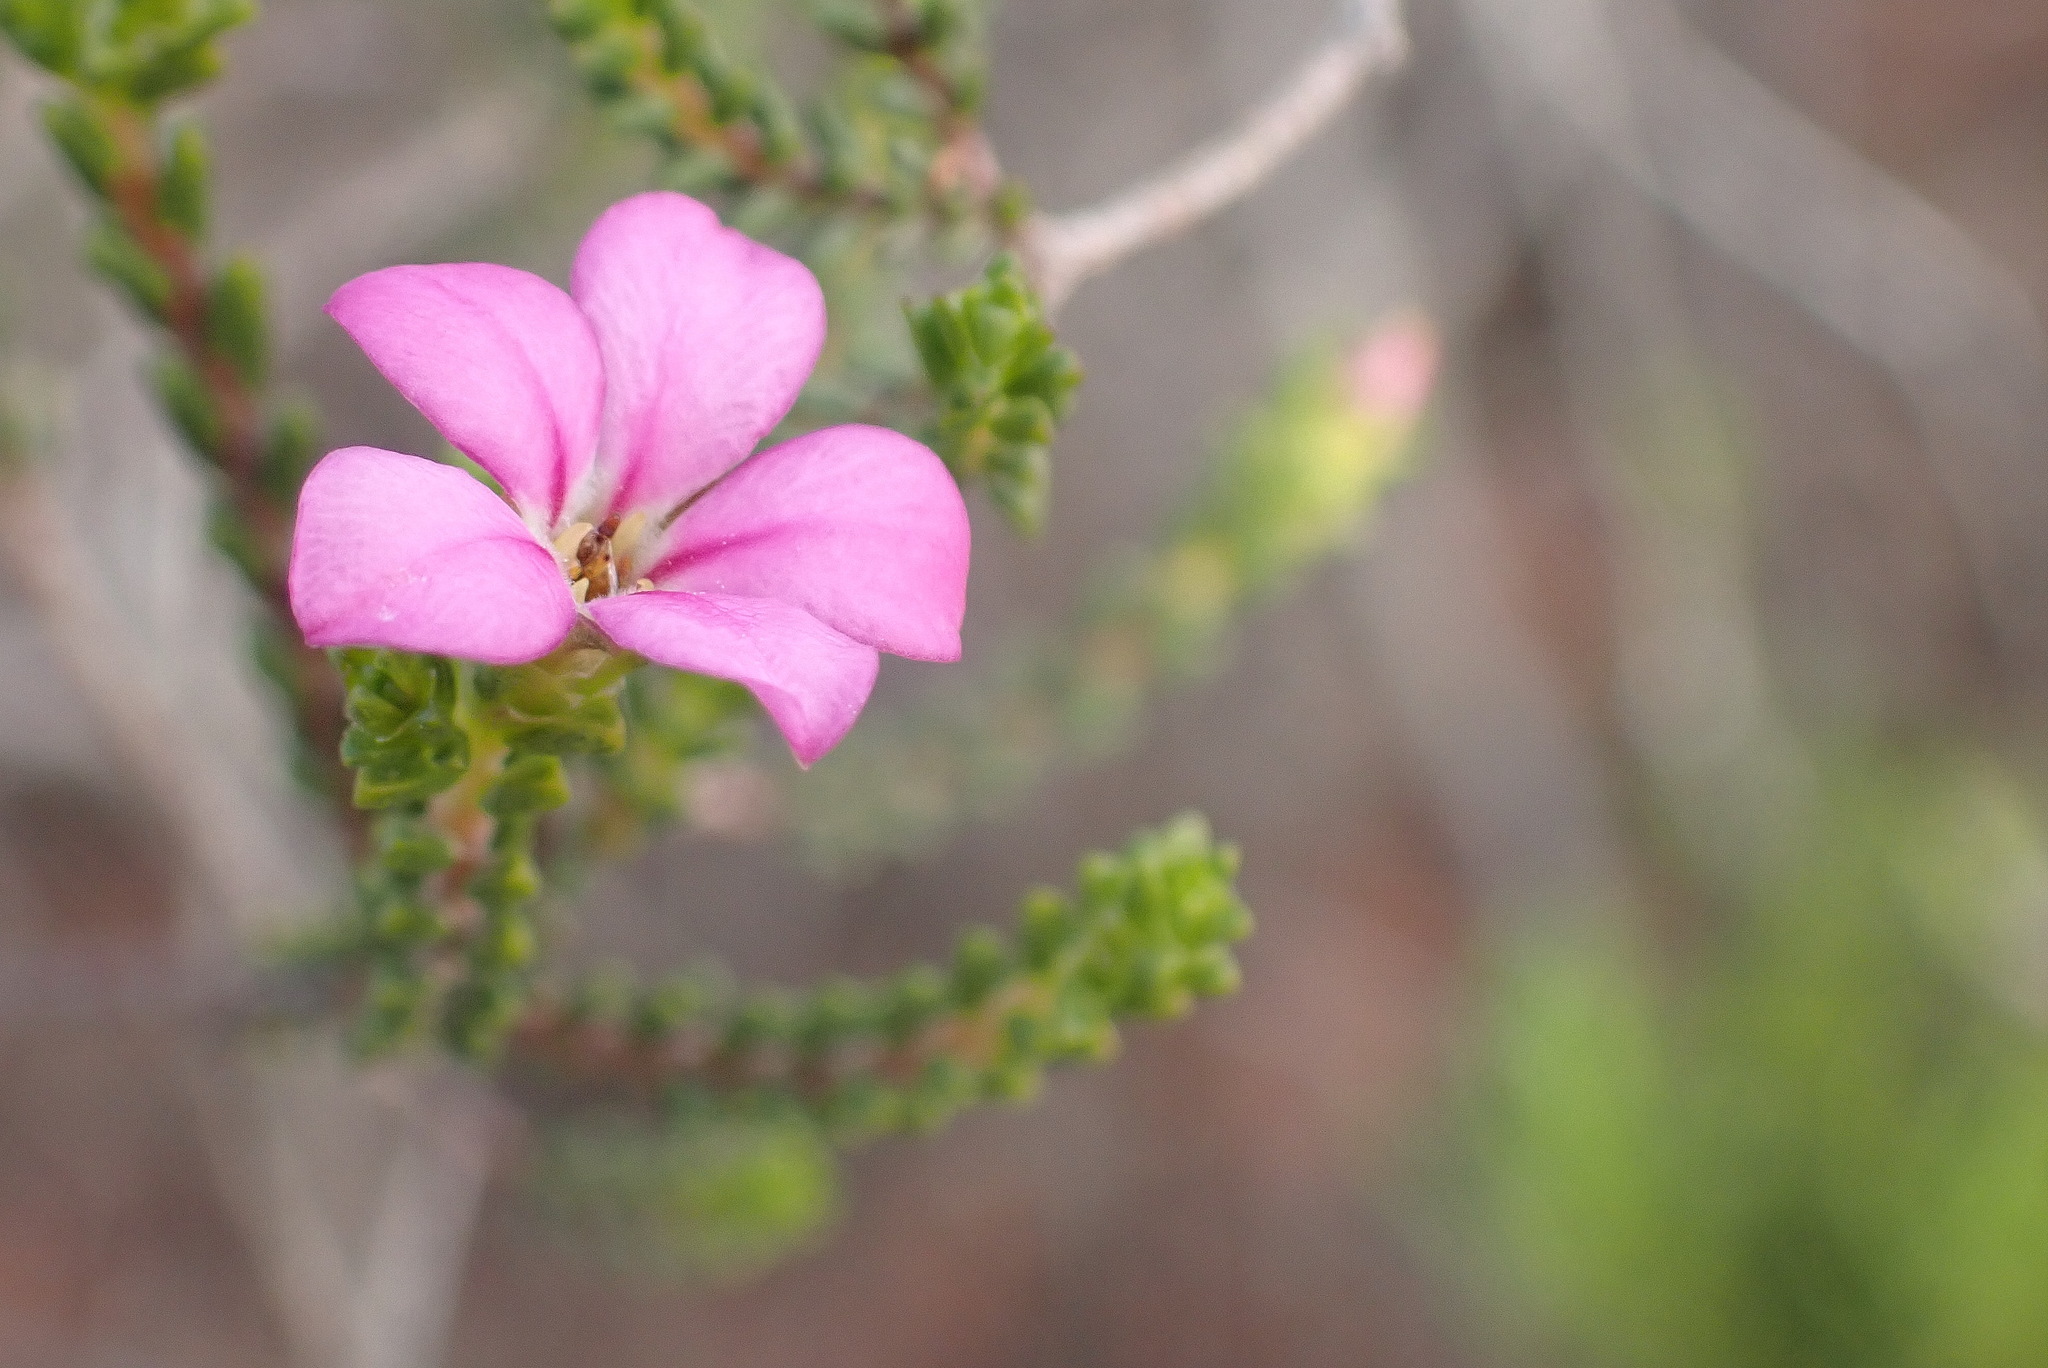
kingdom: Plantae
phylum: Tracheophyta
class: Magnoliopsida
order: Sapindales
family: Rutaceae
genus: Acmadenia
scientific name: Acmadenia sheilae
